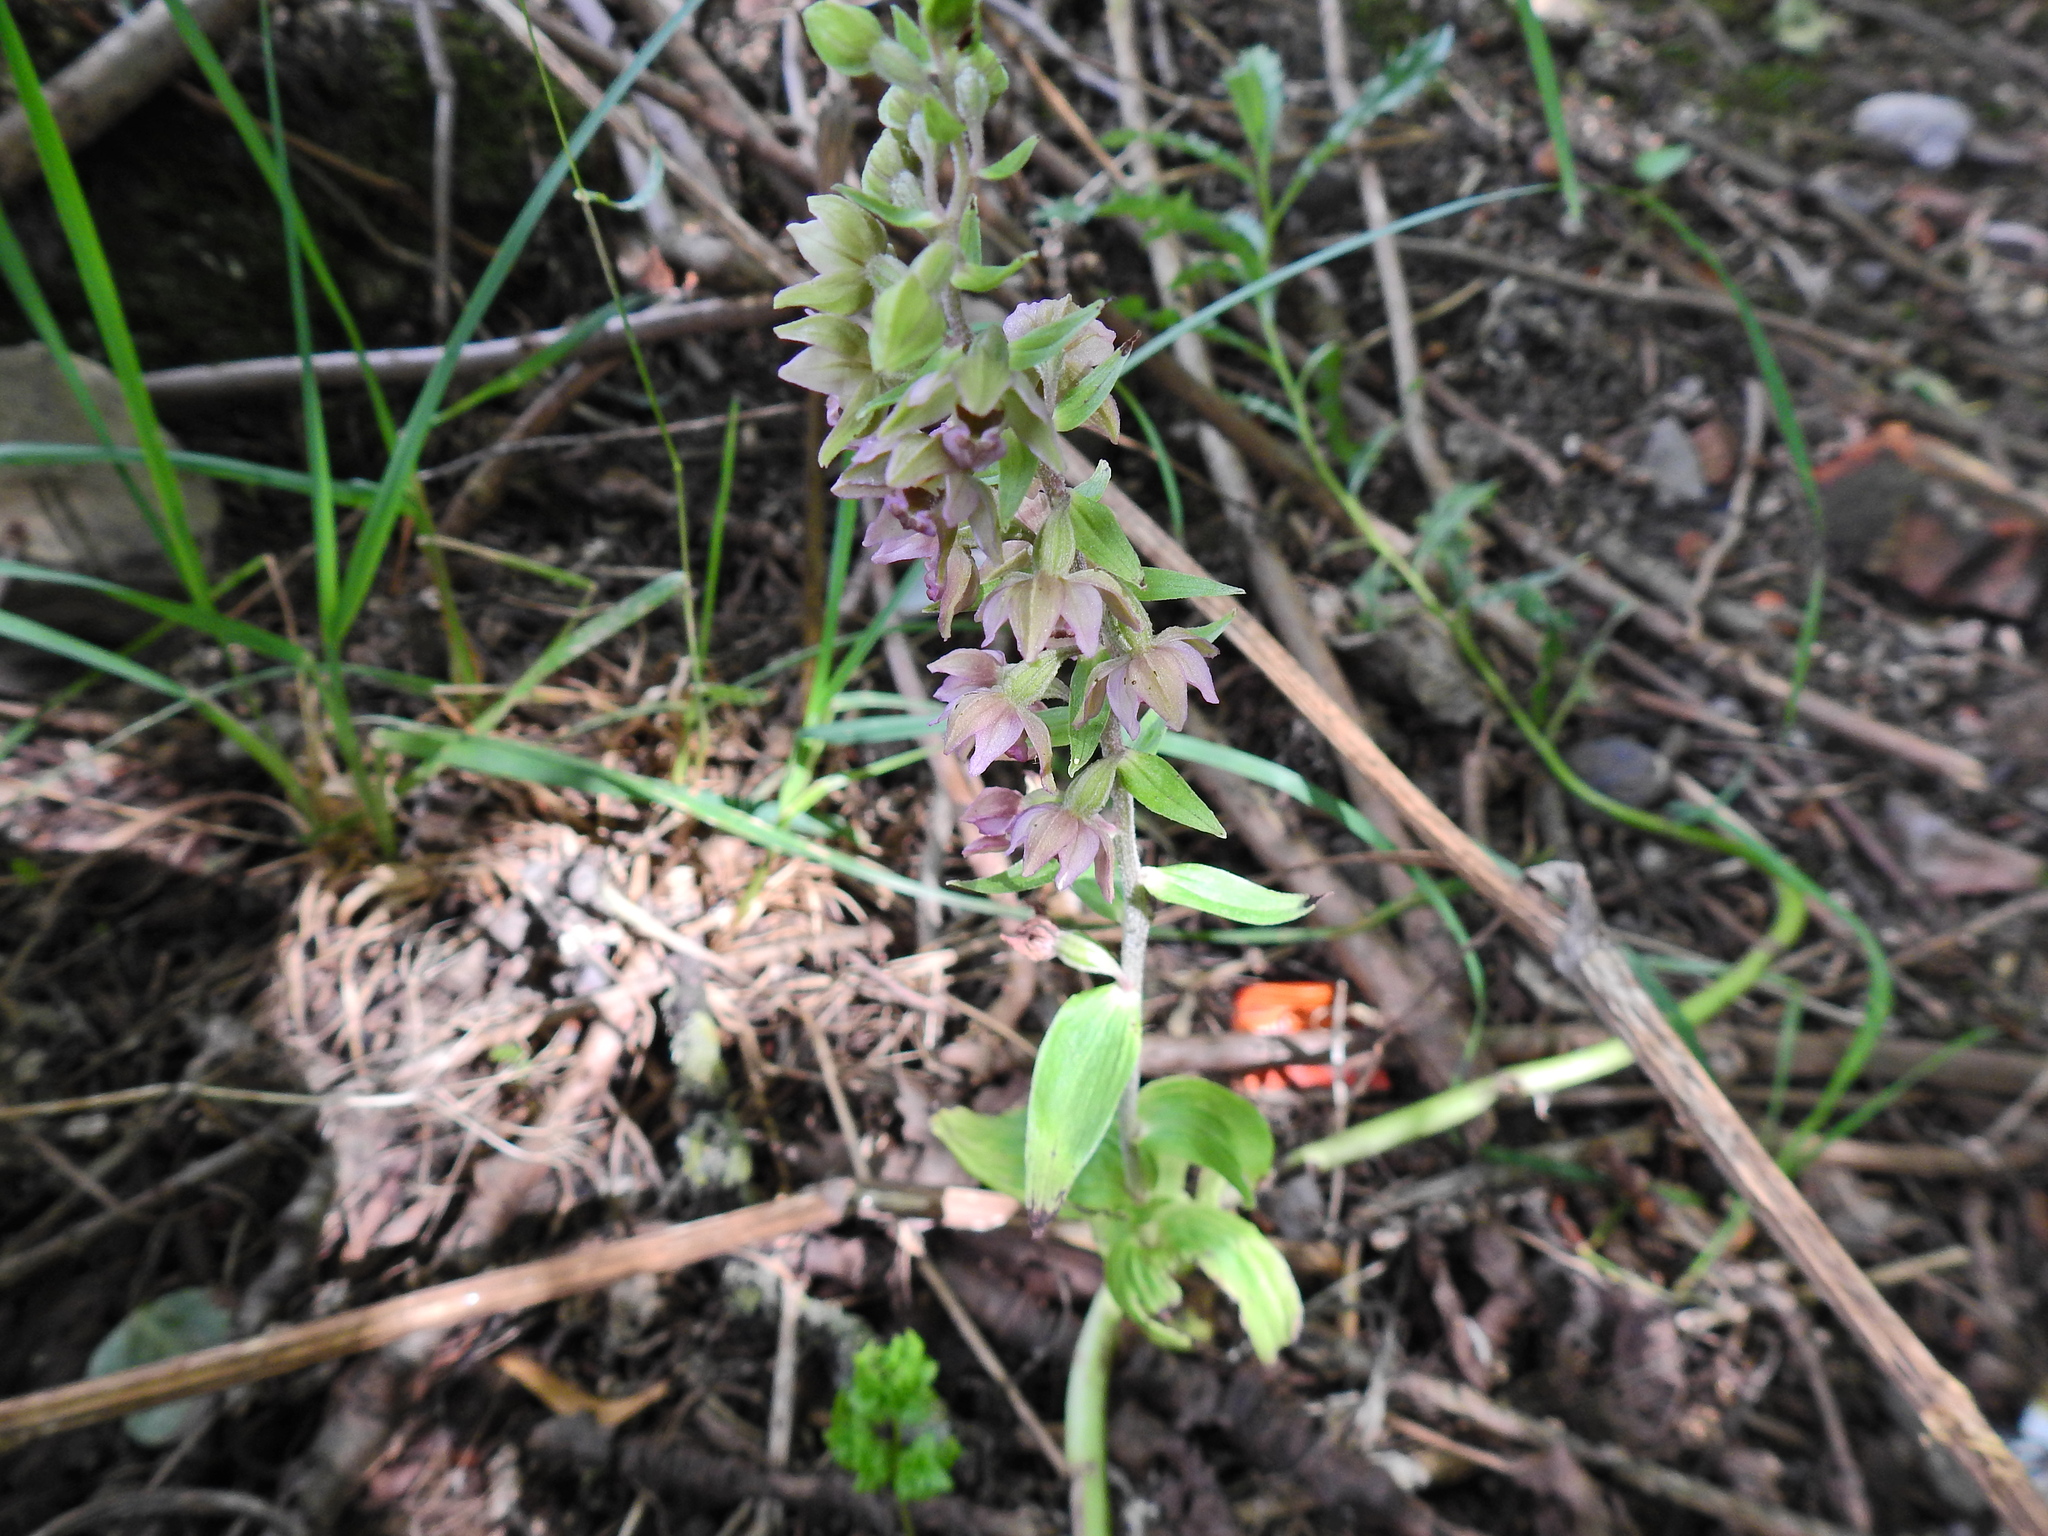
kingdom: Plantae
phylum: Tracheophyta
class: Liliopsida
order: Asparagales
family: Orchidaceae
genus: Epipactis
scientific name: Epipactis helleborine
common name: Broad-leaved helleborine
